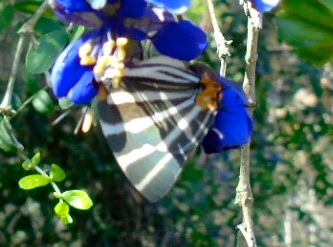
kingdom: Animalia
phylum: Arthropoda
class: Insecta
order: Lepidoptera
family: Lycaenidae
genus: Thecla
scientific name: Thecla bathildis
